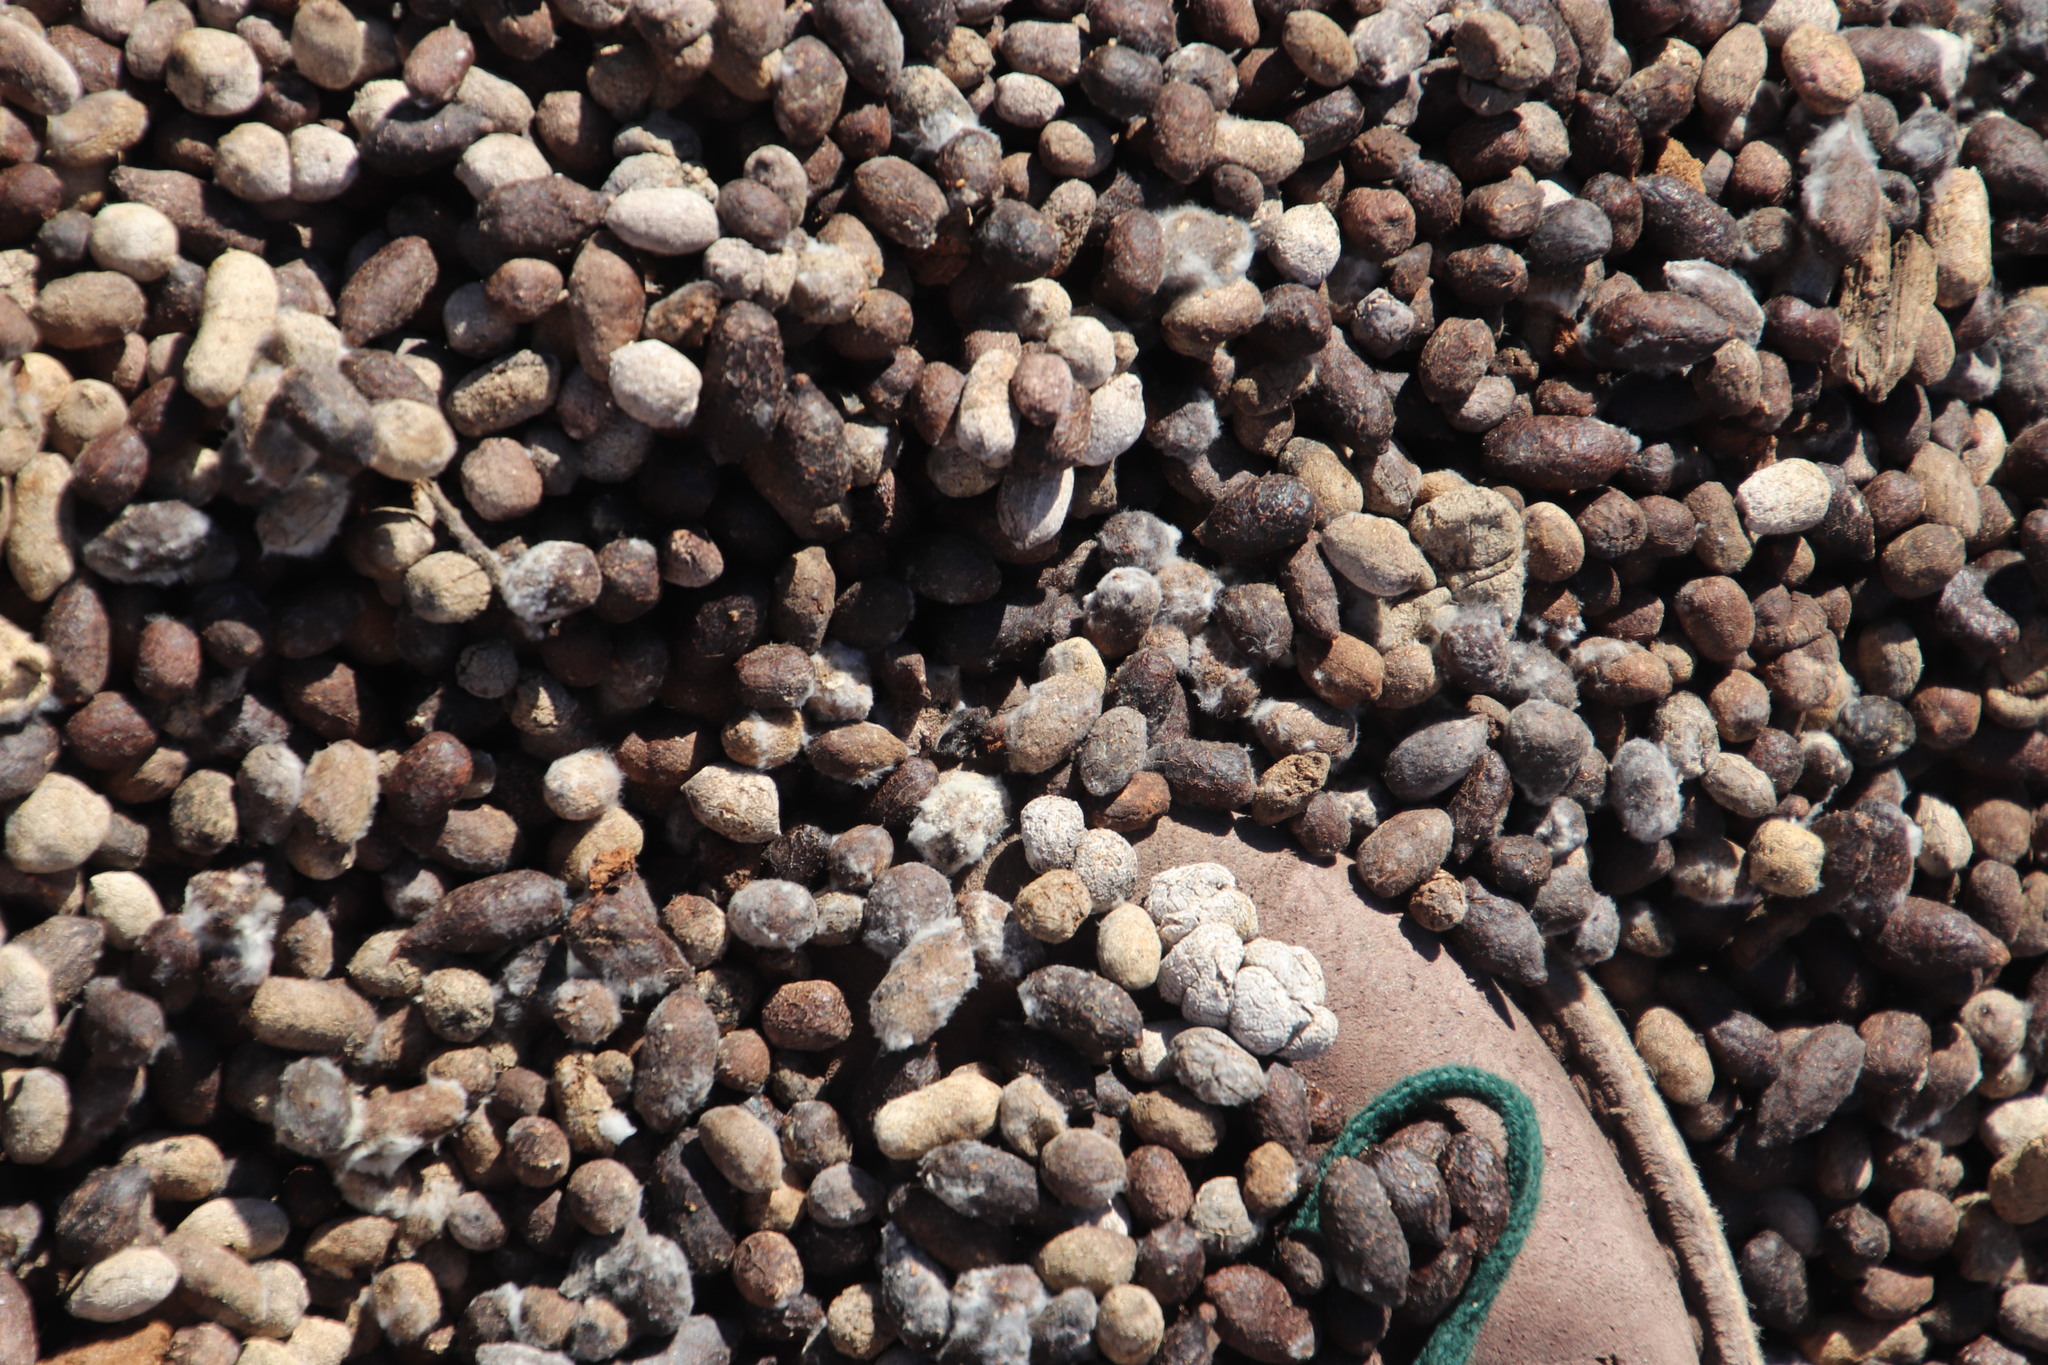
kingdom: Animalia
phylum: Chordata
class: Mammalia
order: Artiodactyla
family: Bovidae
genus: Oreotragus
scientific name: Oreotragus oreotragus
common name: Klipspringer
